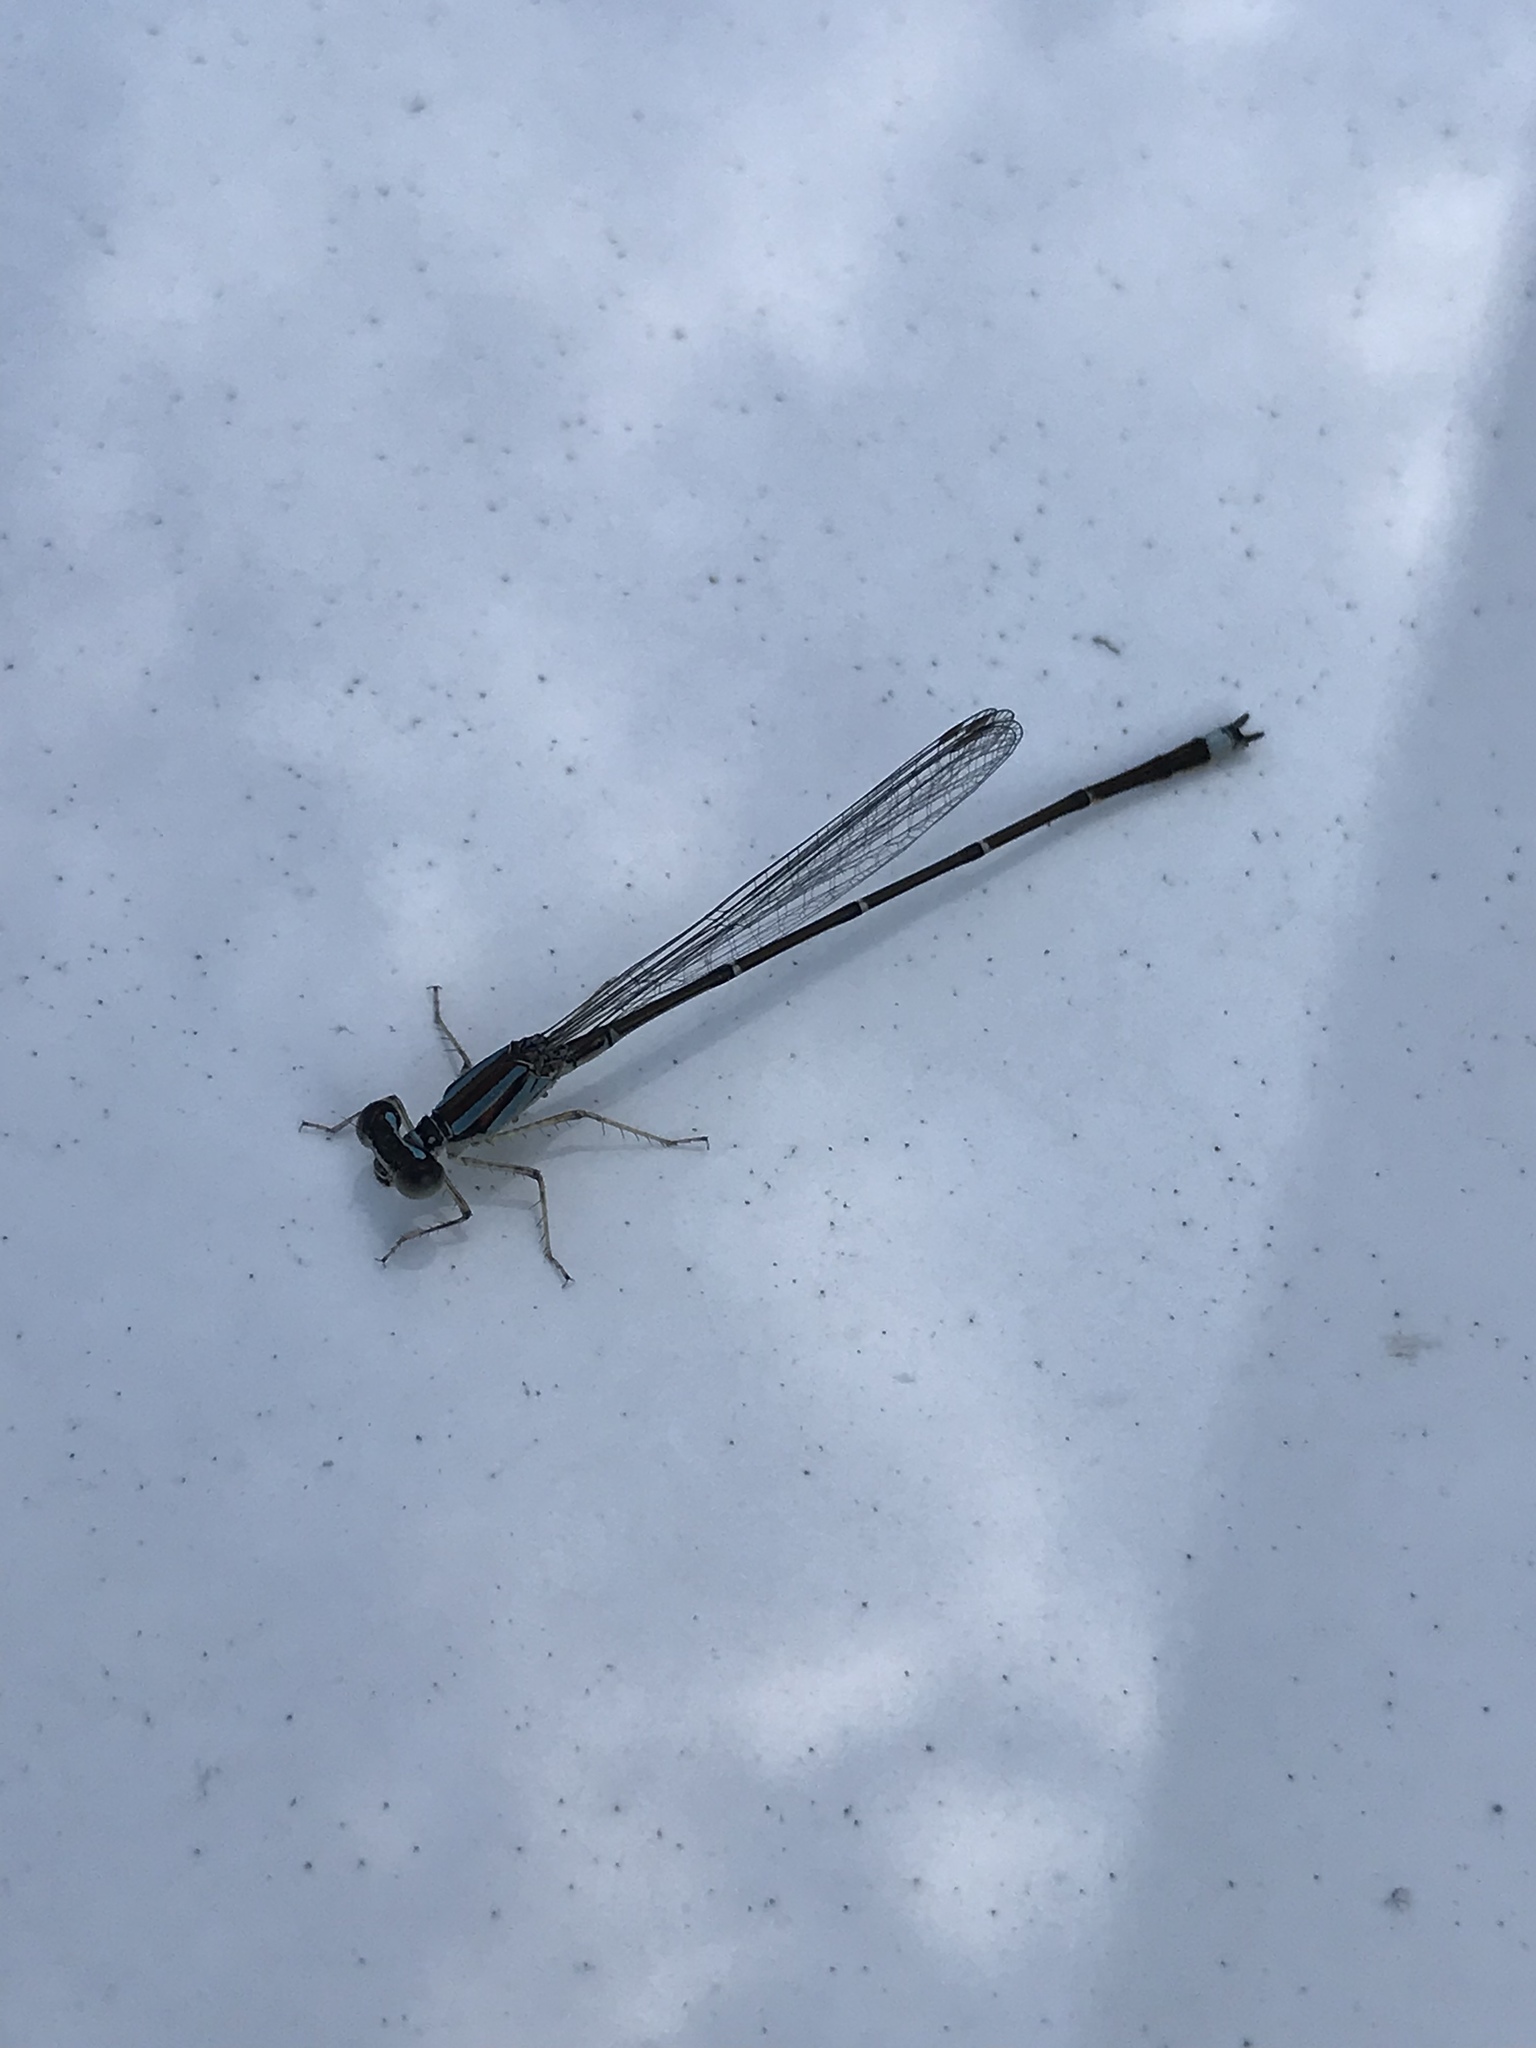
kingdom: Animalia
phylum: Arthropoda
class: Insecta
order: Odonata
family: Coenagrionidae
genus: Enallagma
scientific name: Enallagma signatum
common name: Orange bluet
